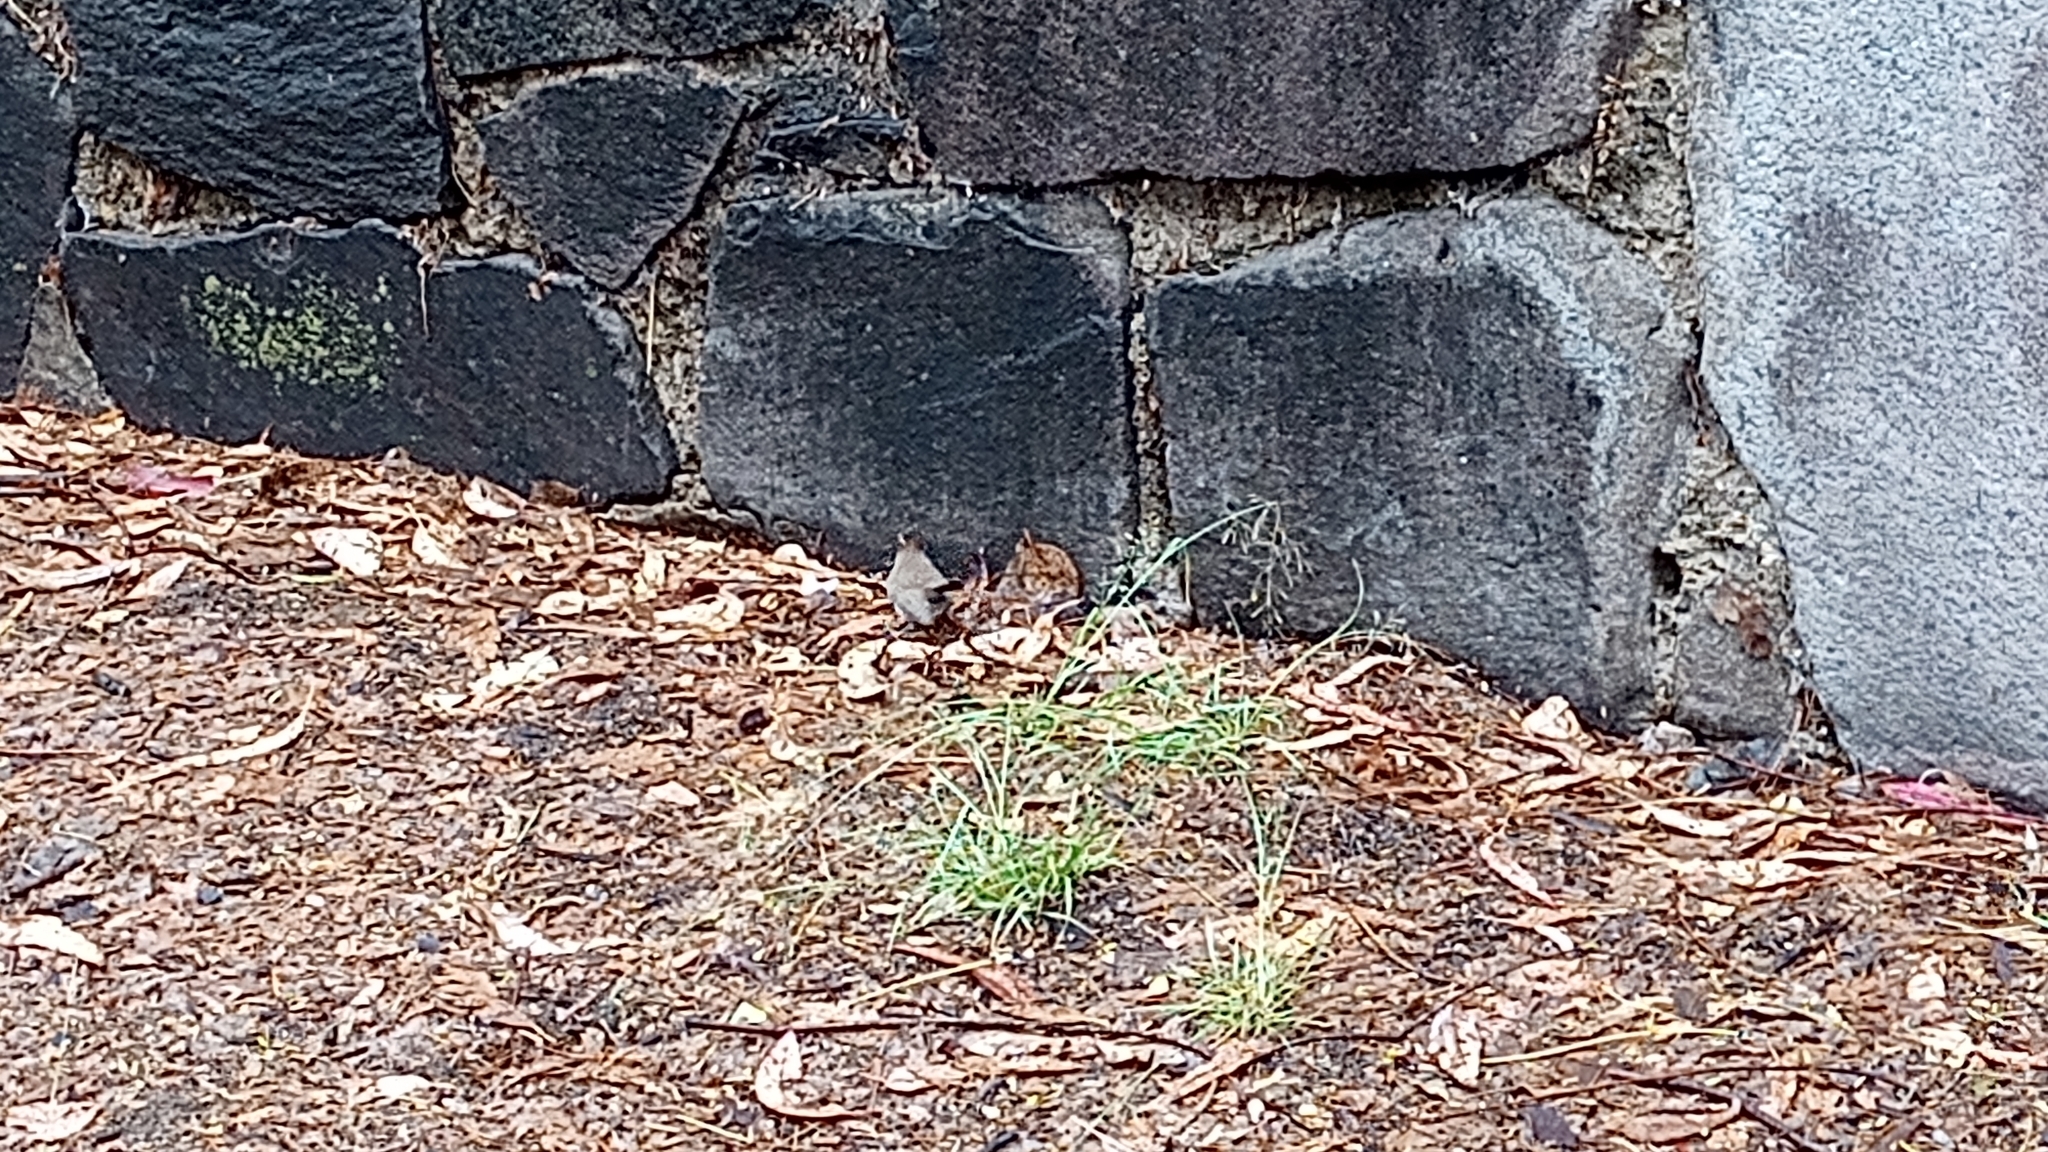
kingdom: Animalia
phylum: Chordata
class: Aves
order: Passeriformes
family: Troglodytidae
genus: Thryomanes
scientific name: Thryomanes bewickii
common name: Bewick's wren
